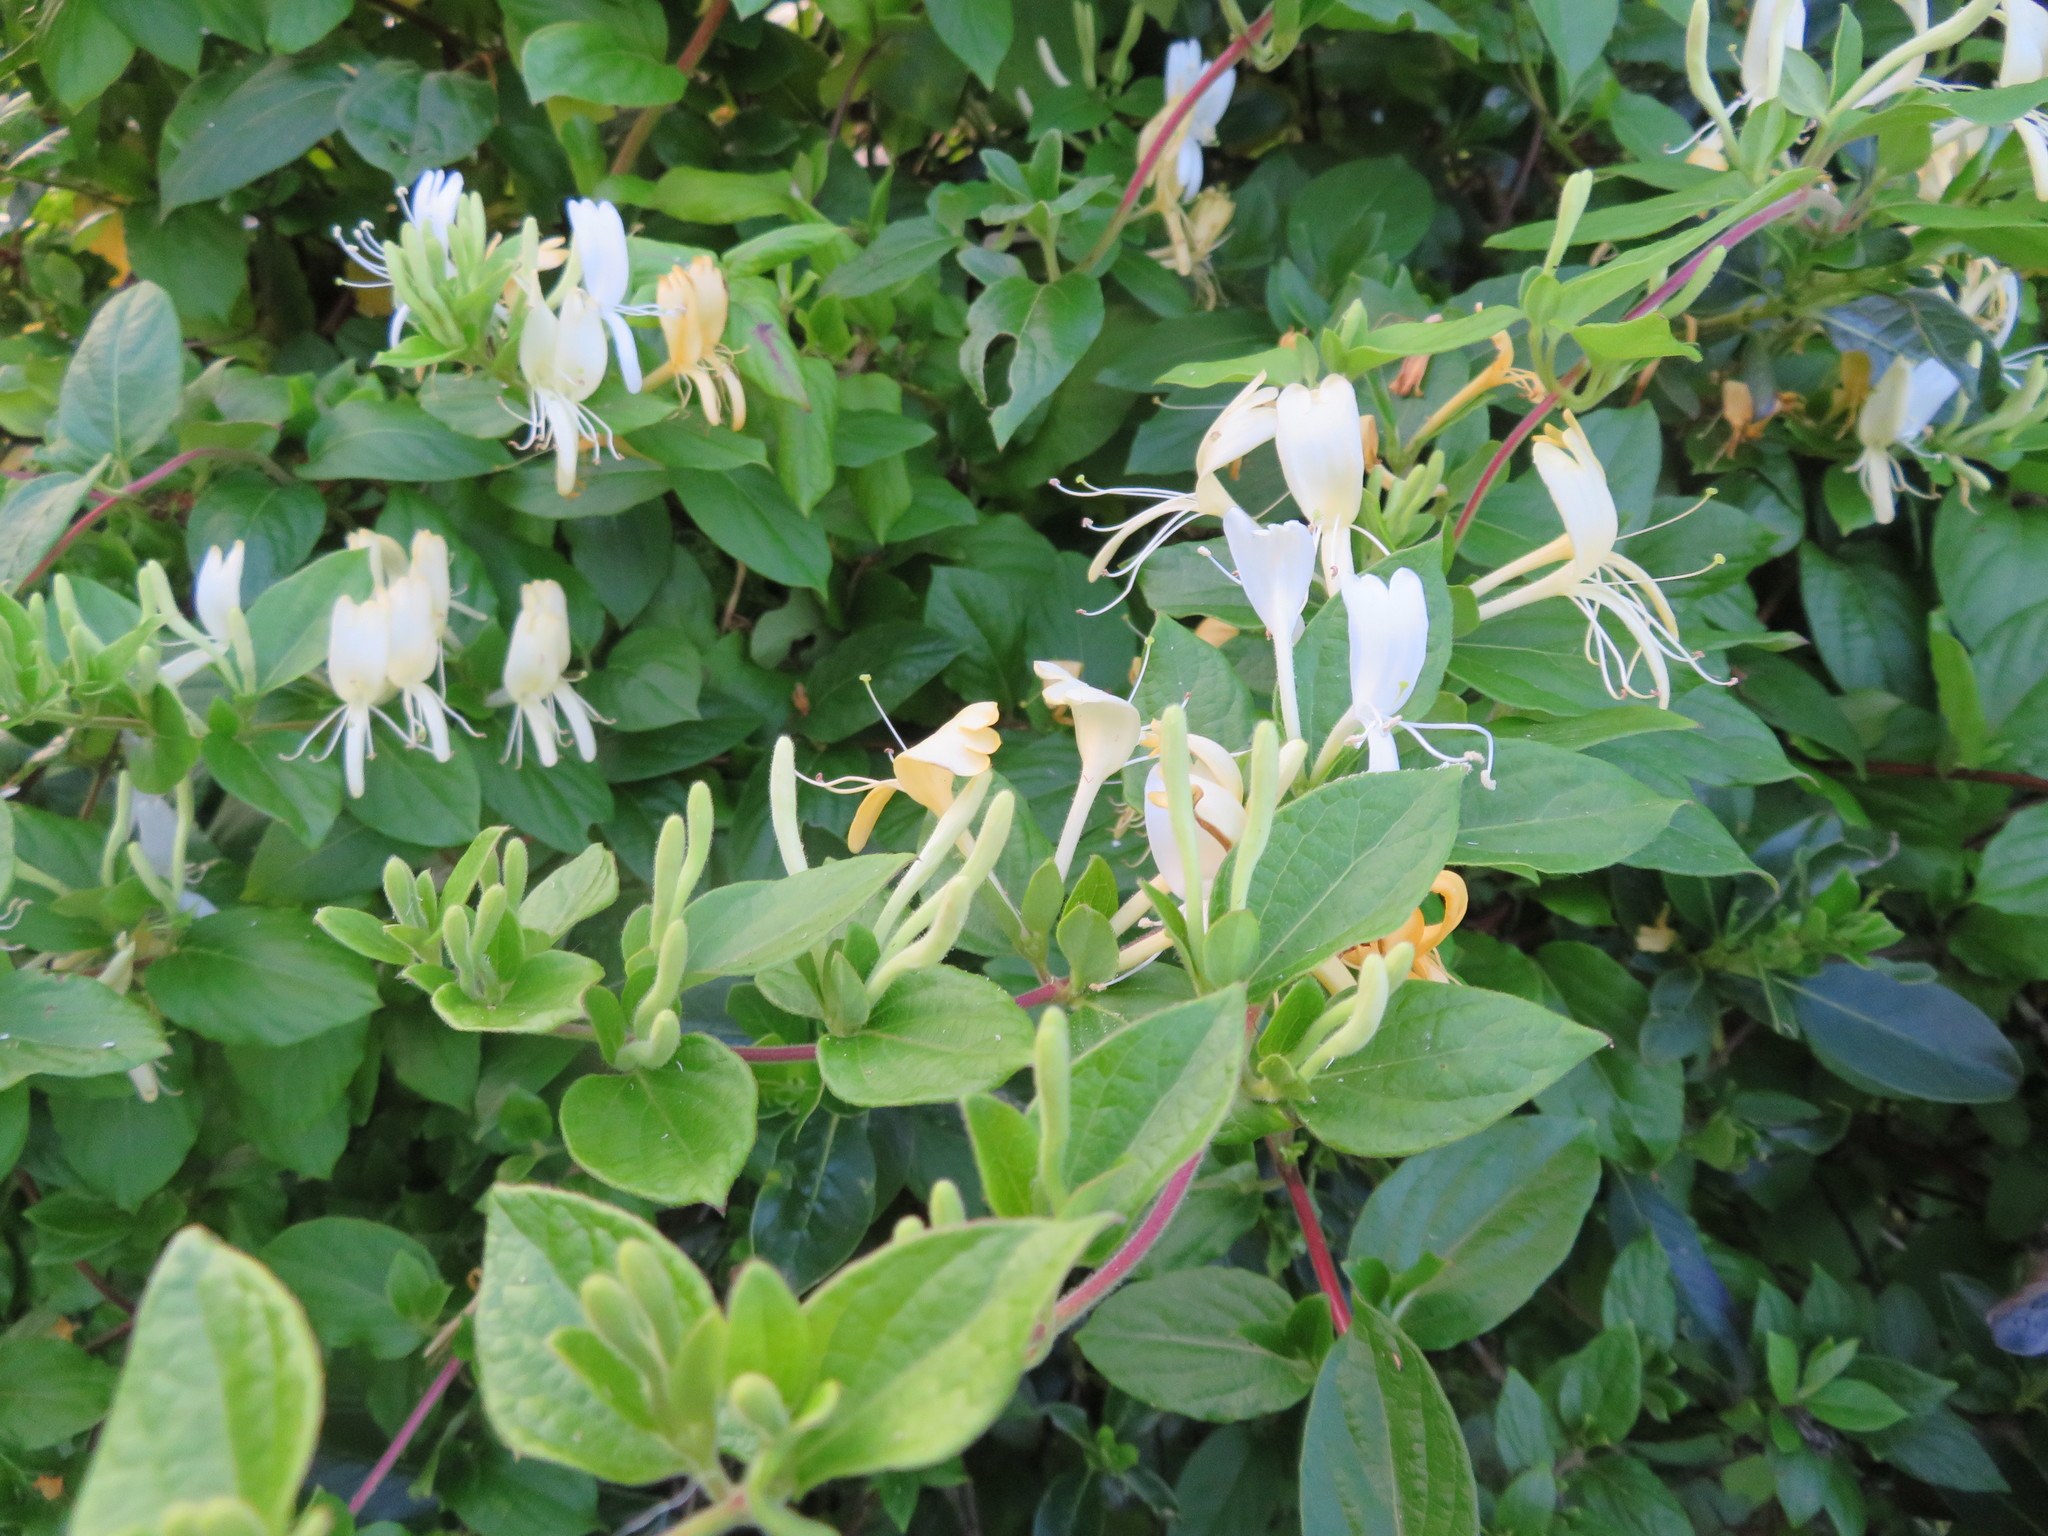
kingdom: Plantae
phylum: Tracheophyta
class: Magnoliopsida
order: Dipsacales
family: Caprifoliaceae
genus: Lonicera
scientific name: Lonicera japonica
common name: Japanese honeysuckle
